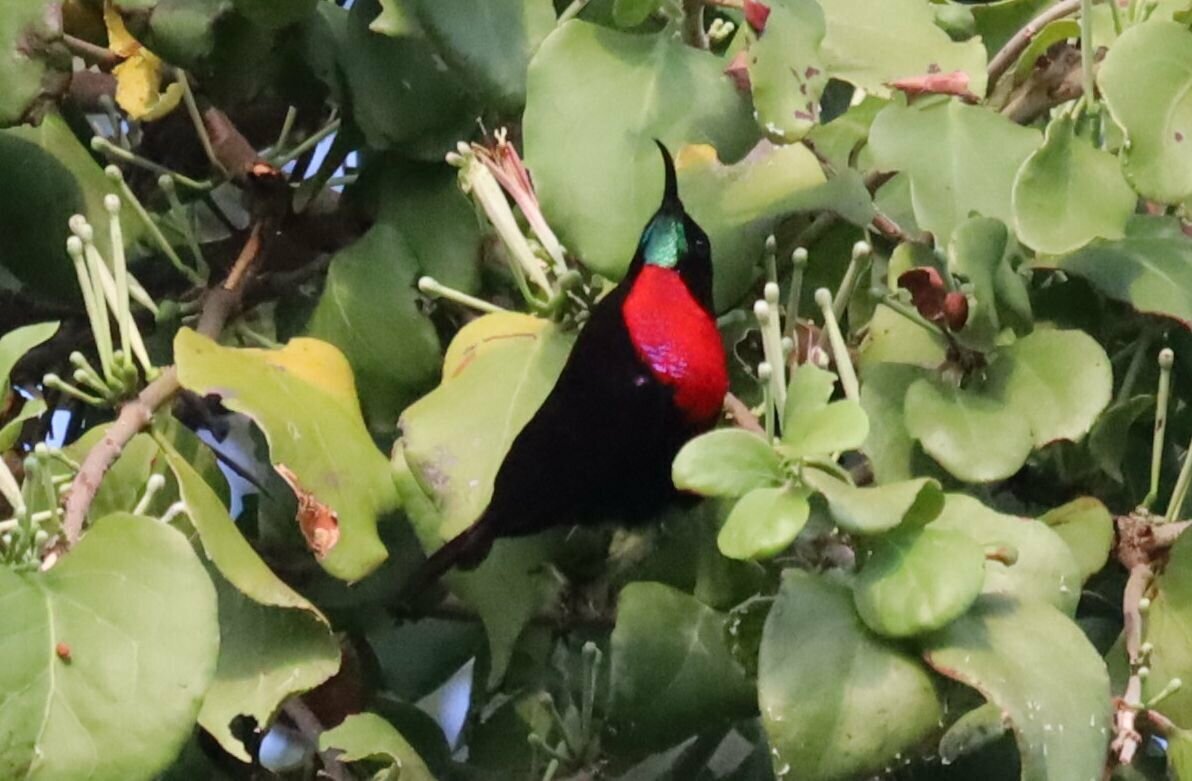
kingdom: Animalia
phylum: Chordata
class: Aves
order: Passeriformes
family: Nectariniidae
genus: Chalcomitra
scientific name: Chalcomitra senegalensis
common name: Scarlet-chested sunbird
